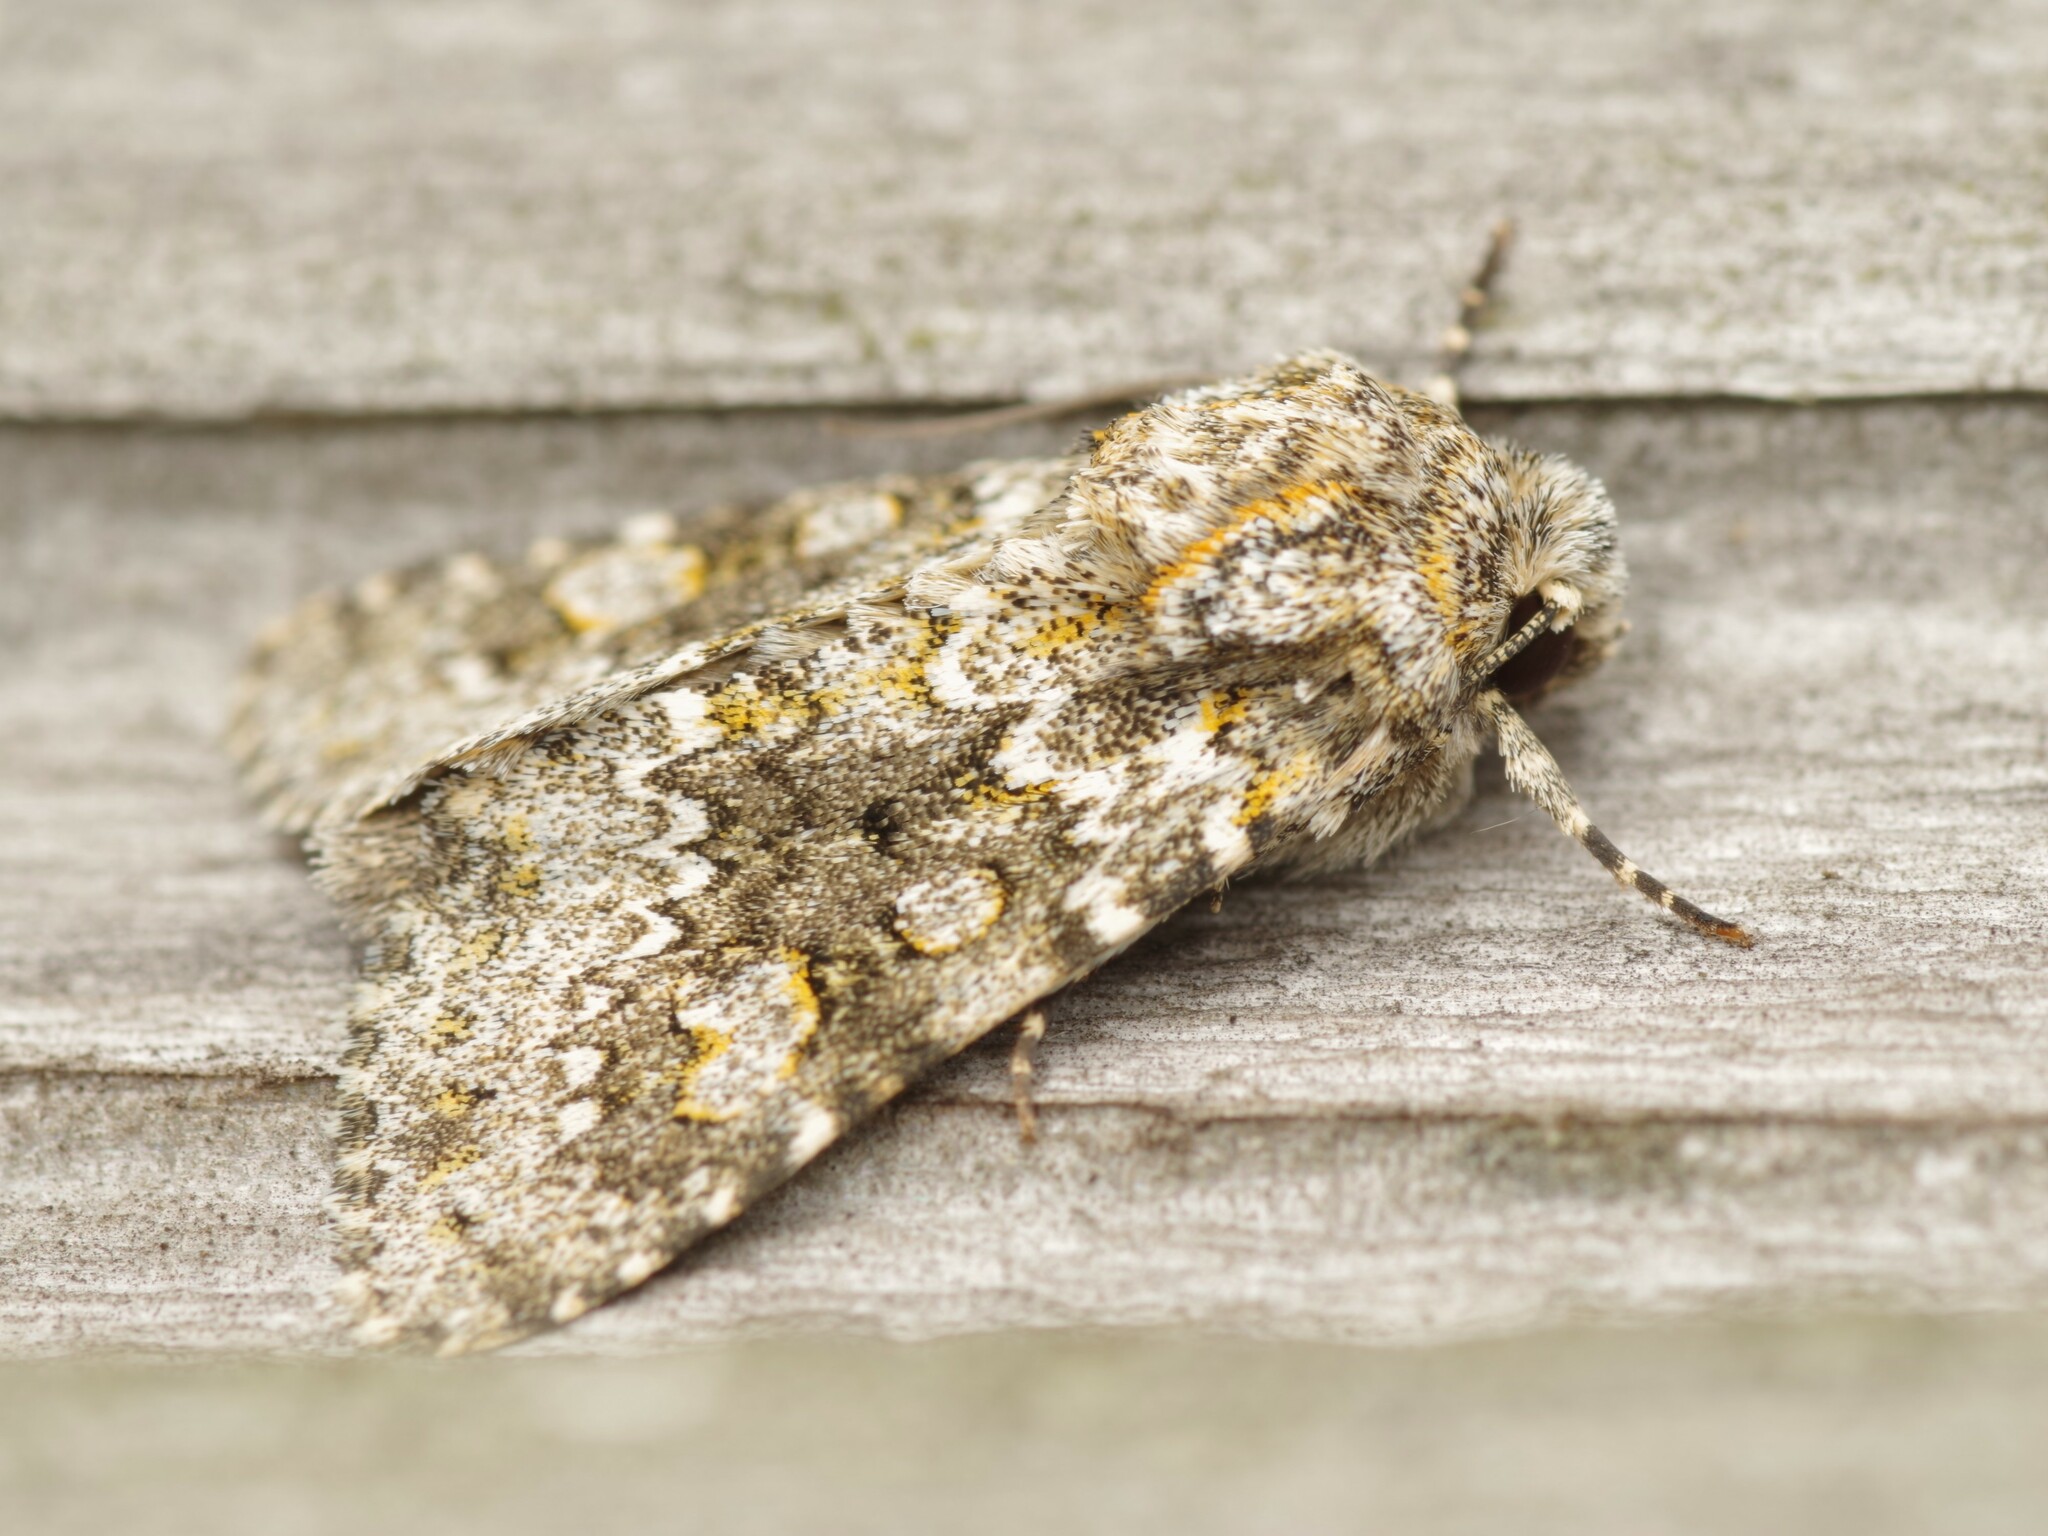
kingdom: Animalia
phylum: Arthropoda
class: Insecta
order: Lepidoptera
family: Noctuidae
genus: Hecatera
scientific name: Hecatera dysodea
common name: Small ranunculus
